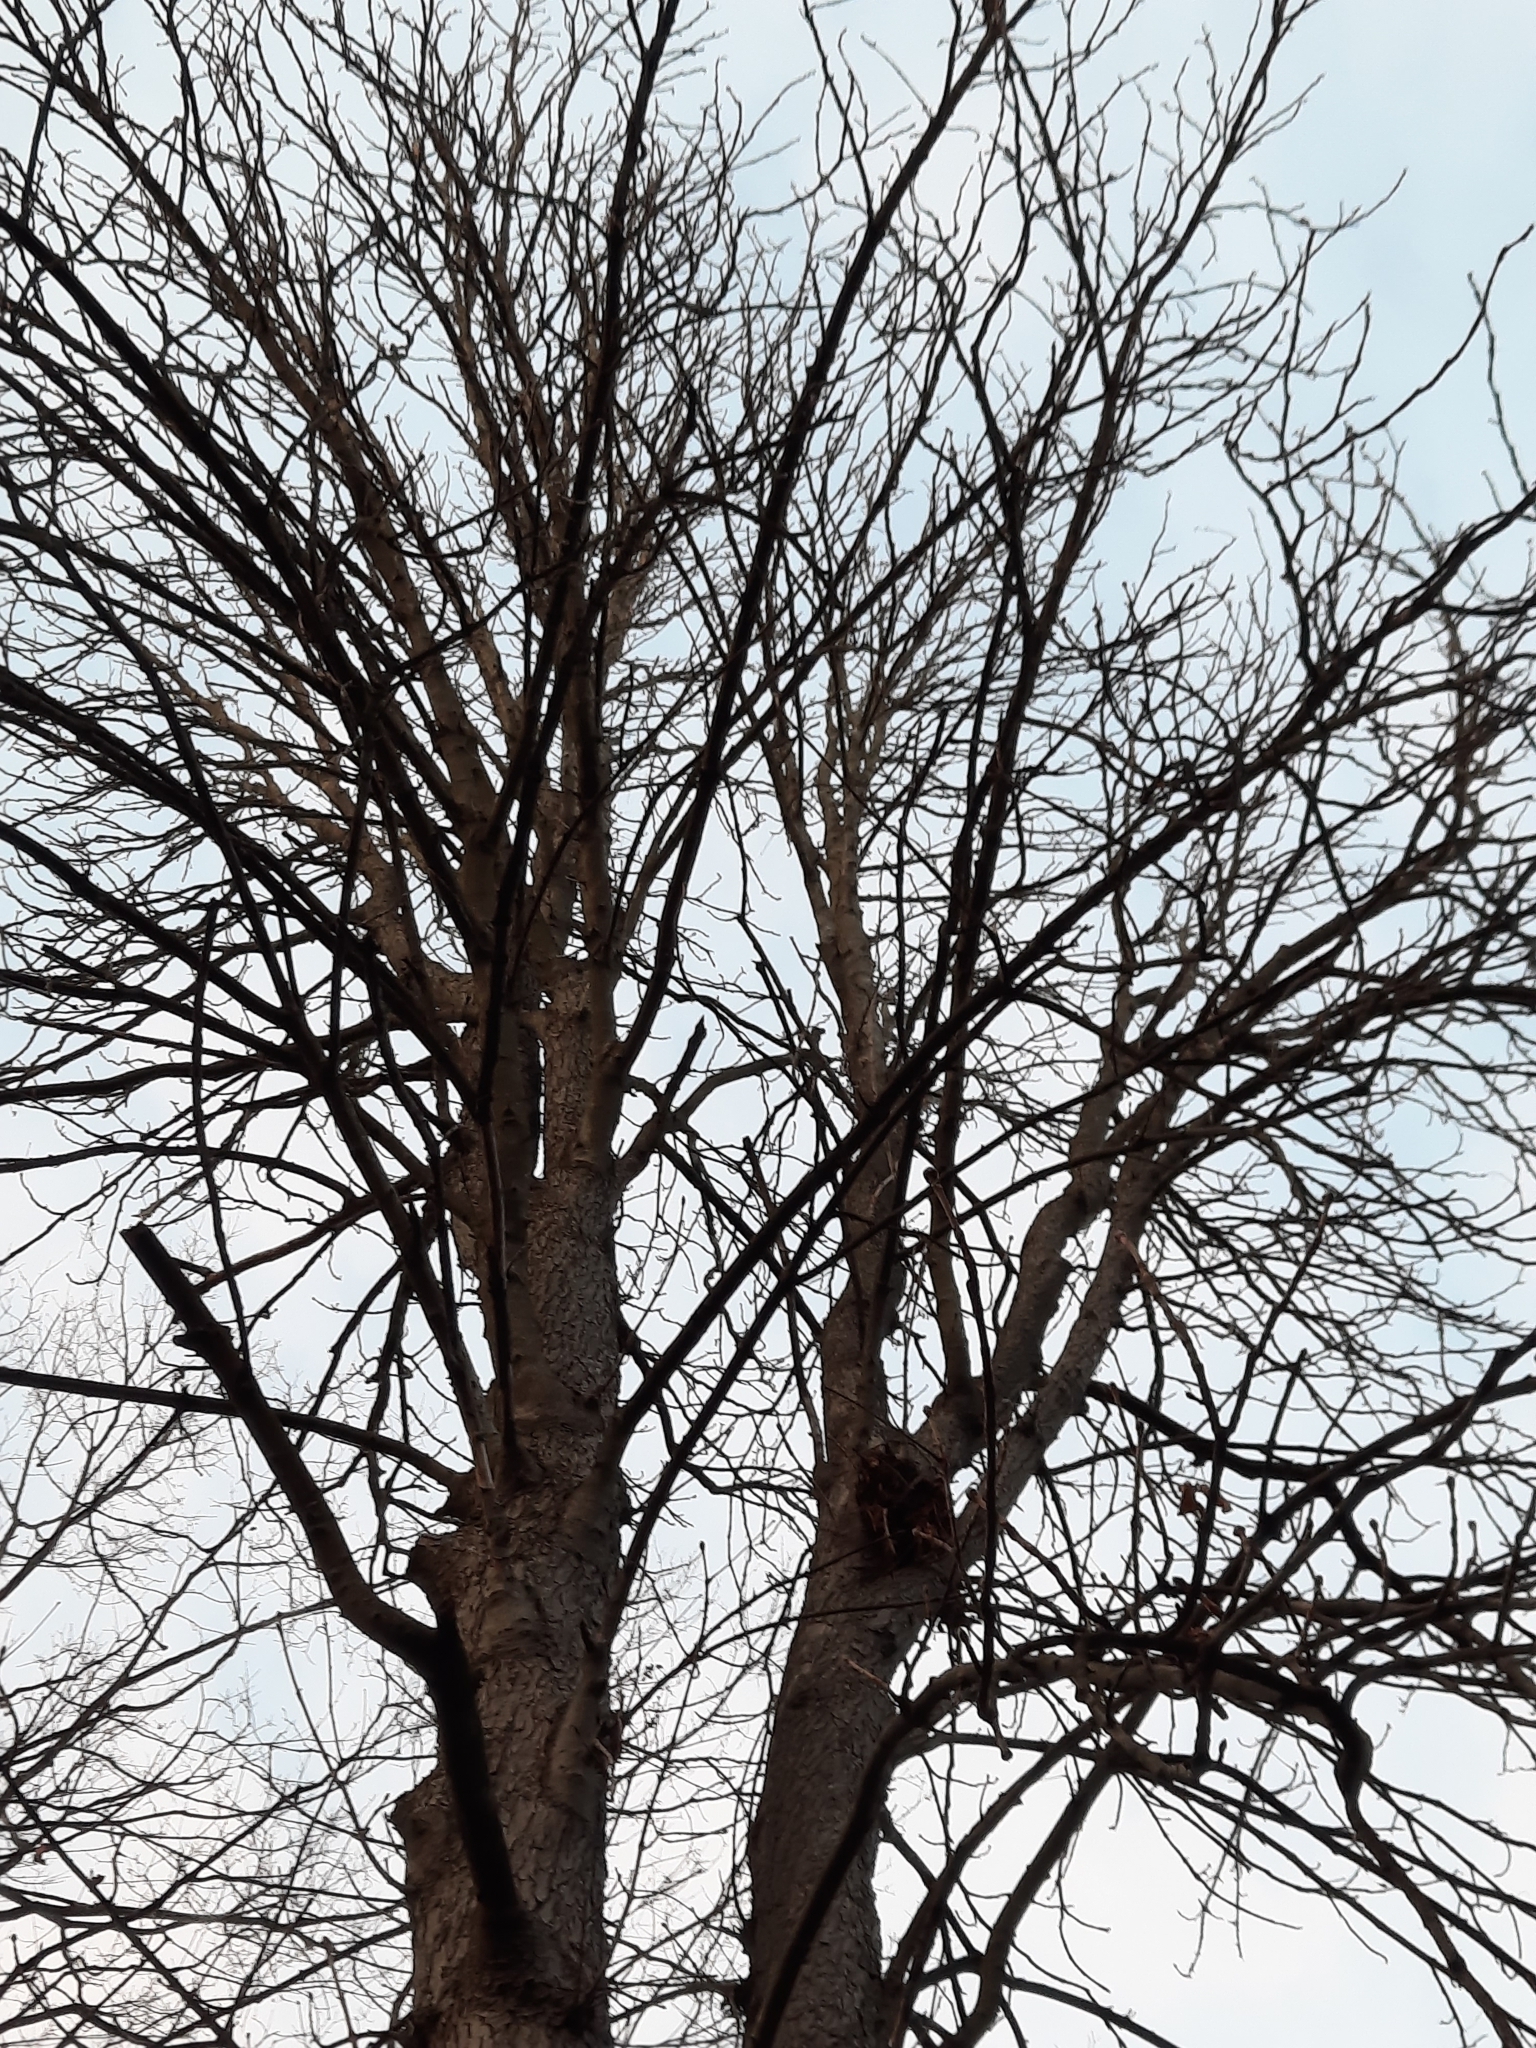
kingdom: Plantae
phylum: Tracheophyta
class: Magnoliopsida
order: Sapindales
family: Sapindaceae
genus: Aesculus
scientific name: Aesculus hippocastanum
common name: Horse-chestnut
